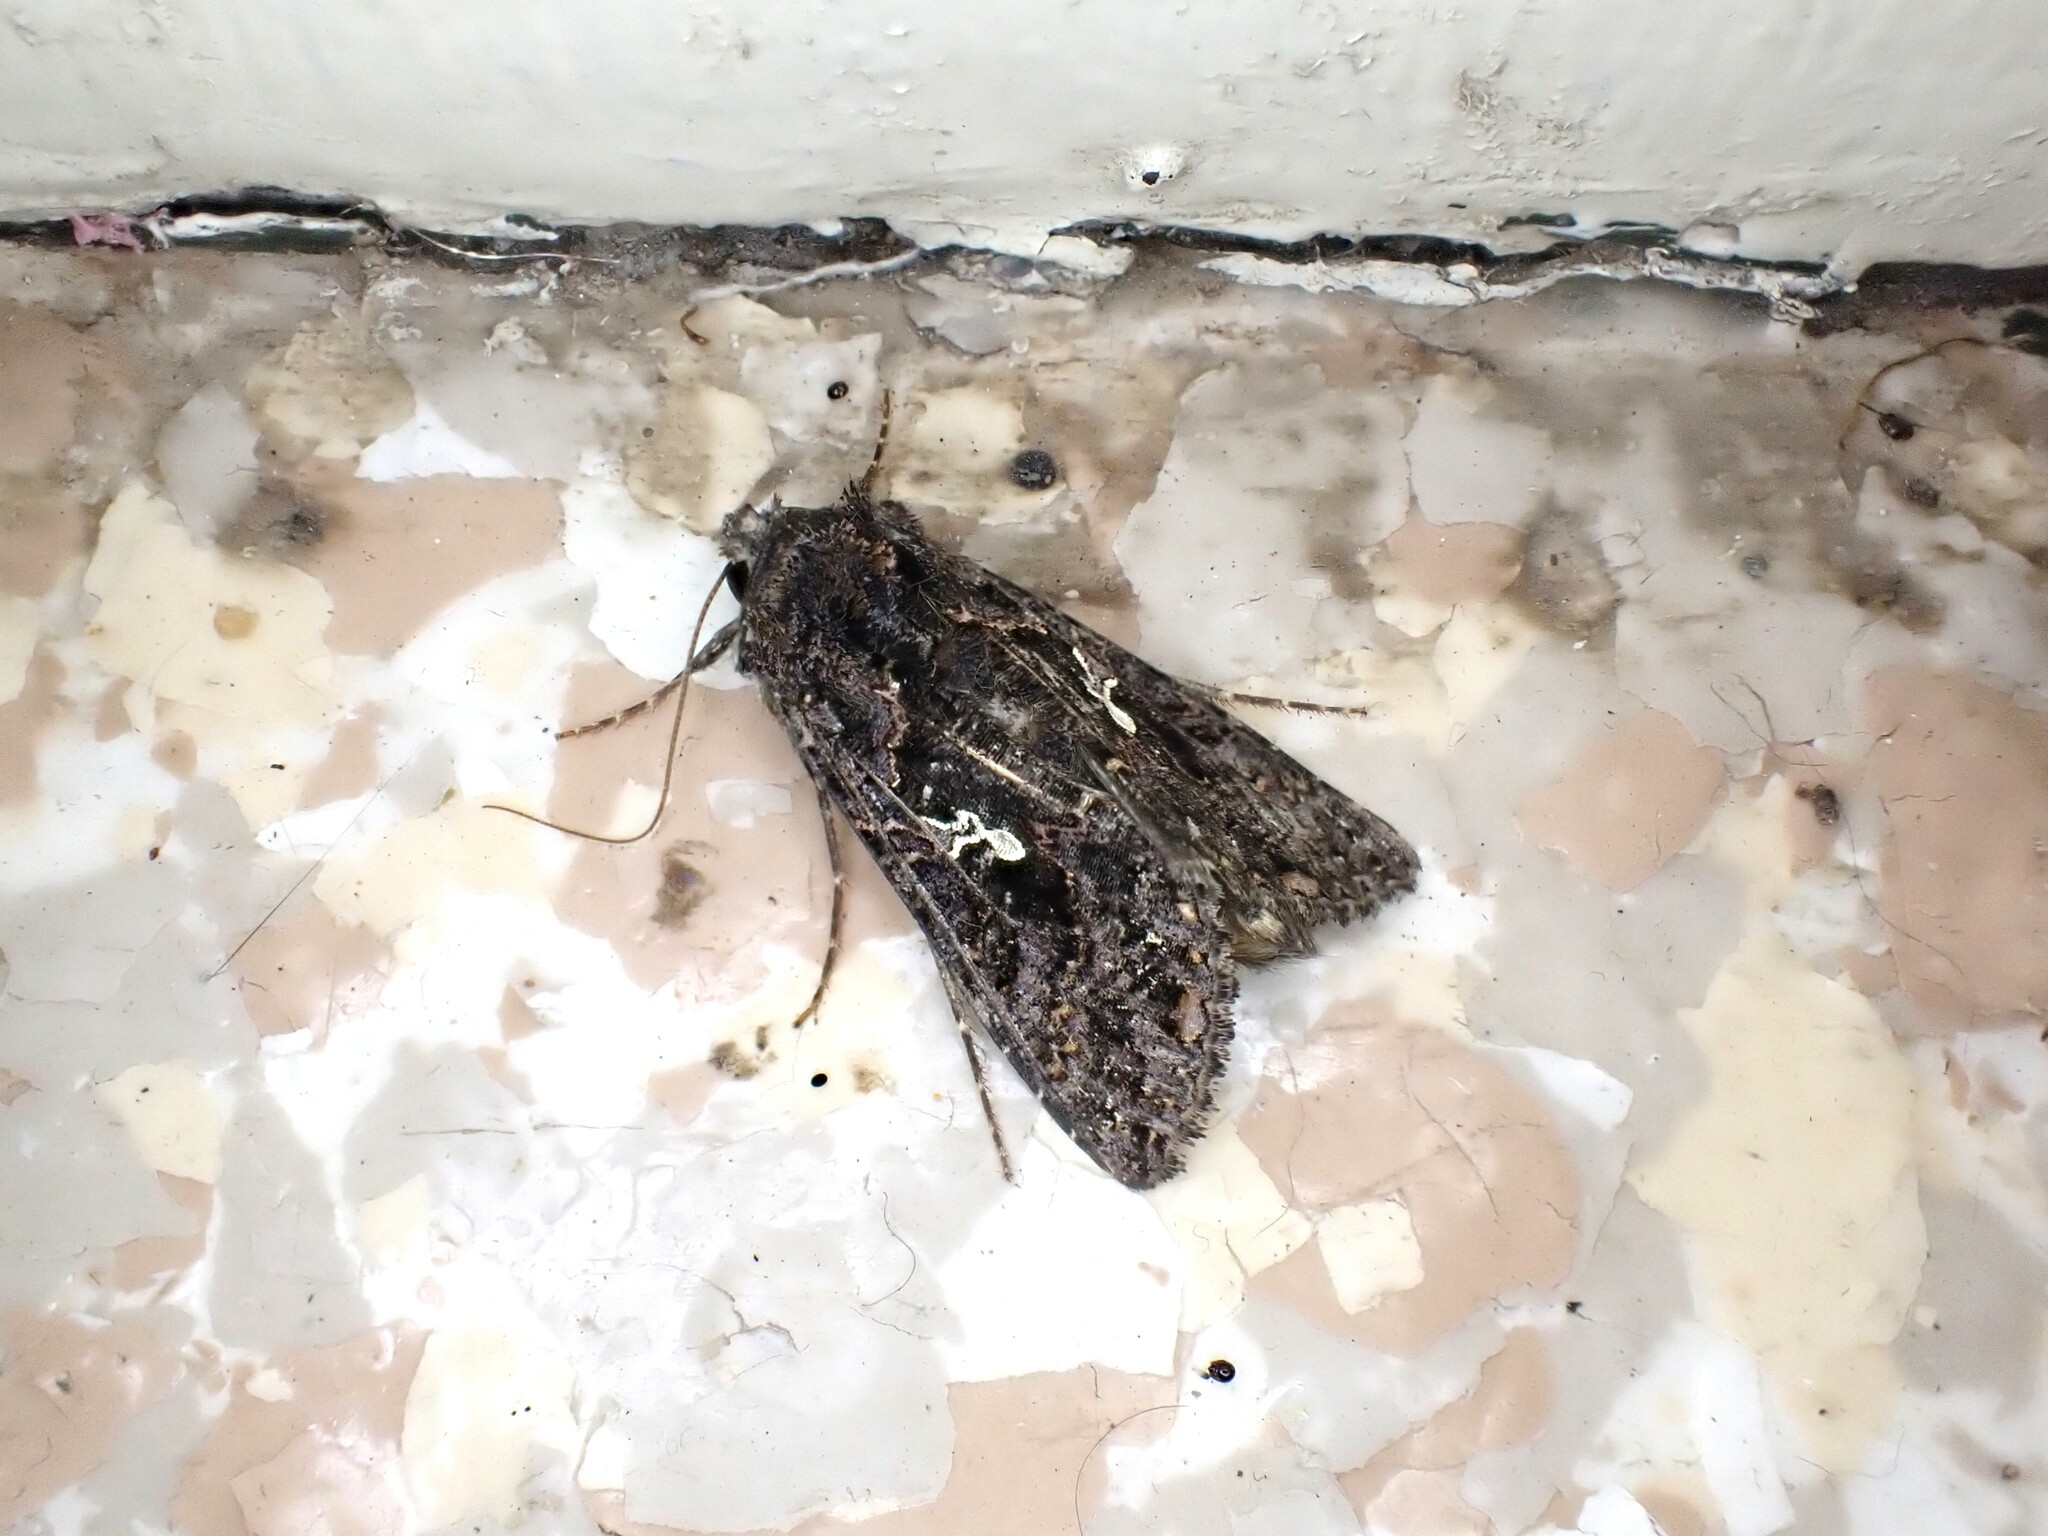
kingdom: Animalia
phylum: Arthropoda
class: Insecta
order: Lepidoptera
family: Noctuidae
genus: Ctenoplusia
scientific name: Ctenoplusia limbirena
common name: Scar bank gem
